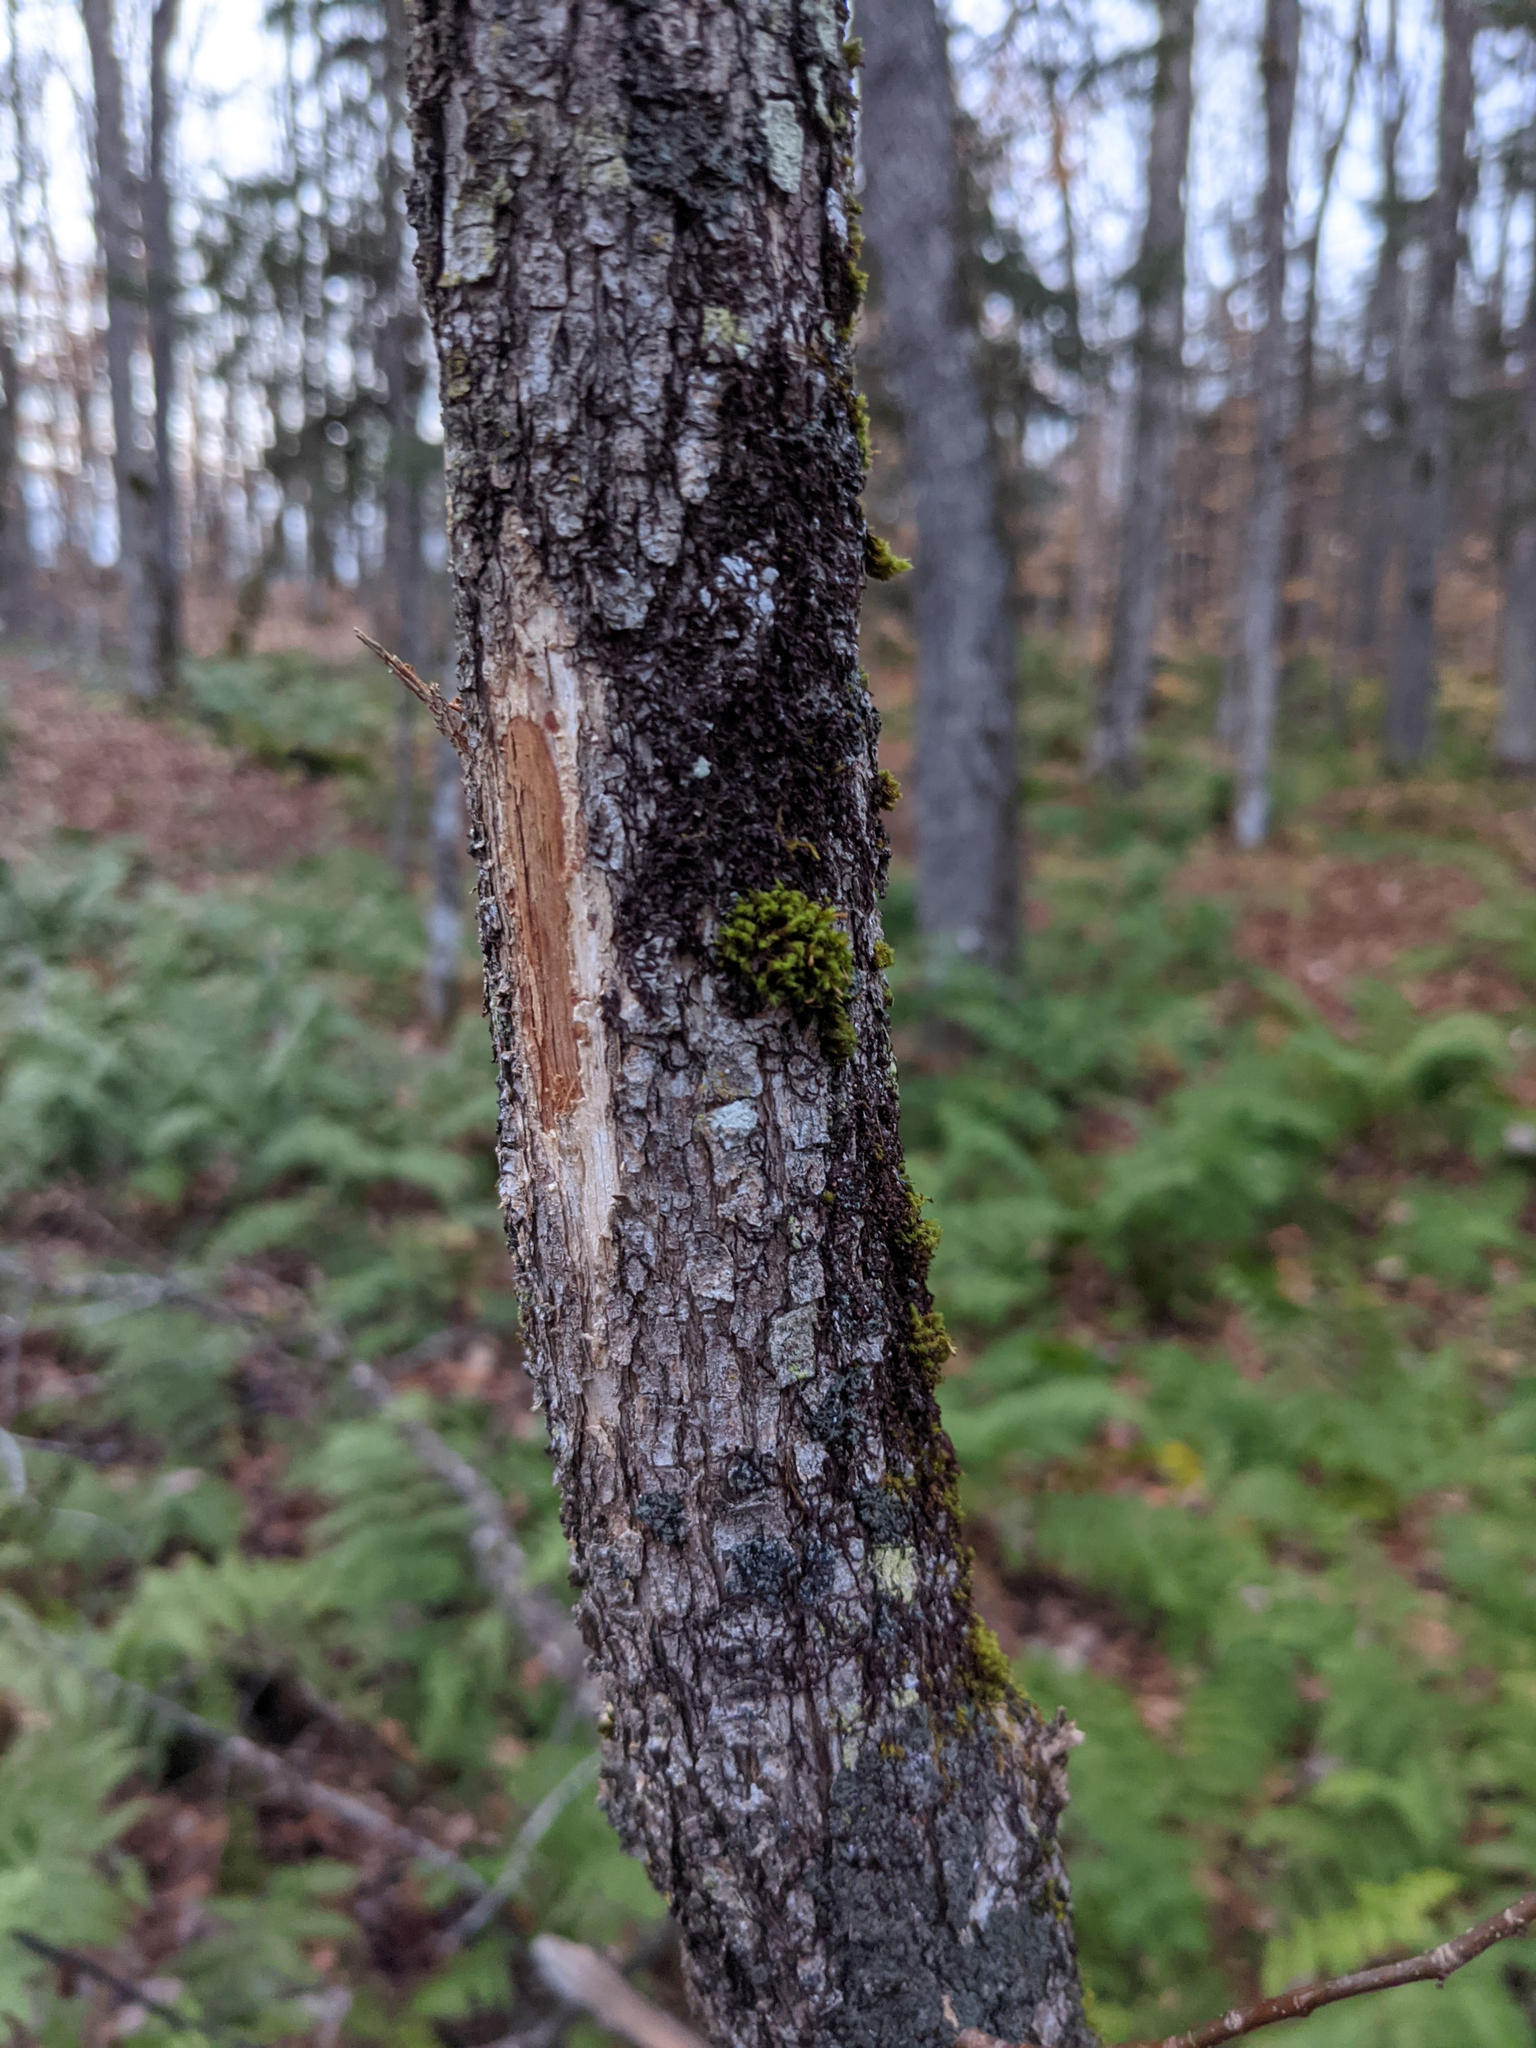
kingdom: Plantae
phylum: Bryophyta
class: Bryopsida
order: Orthotrichales
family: Orthotrichaceae
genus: Ulota
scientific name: Ulota crispa
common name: Crisped pincushion moss
